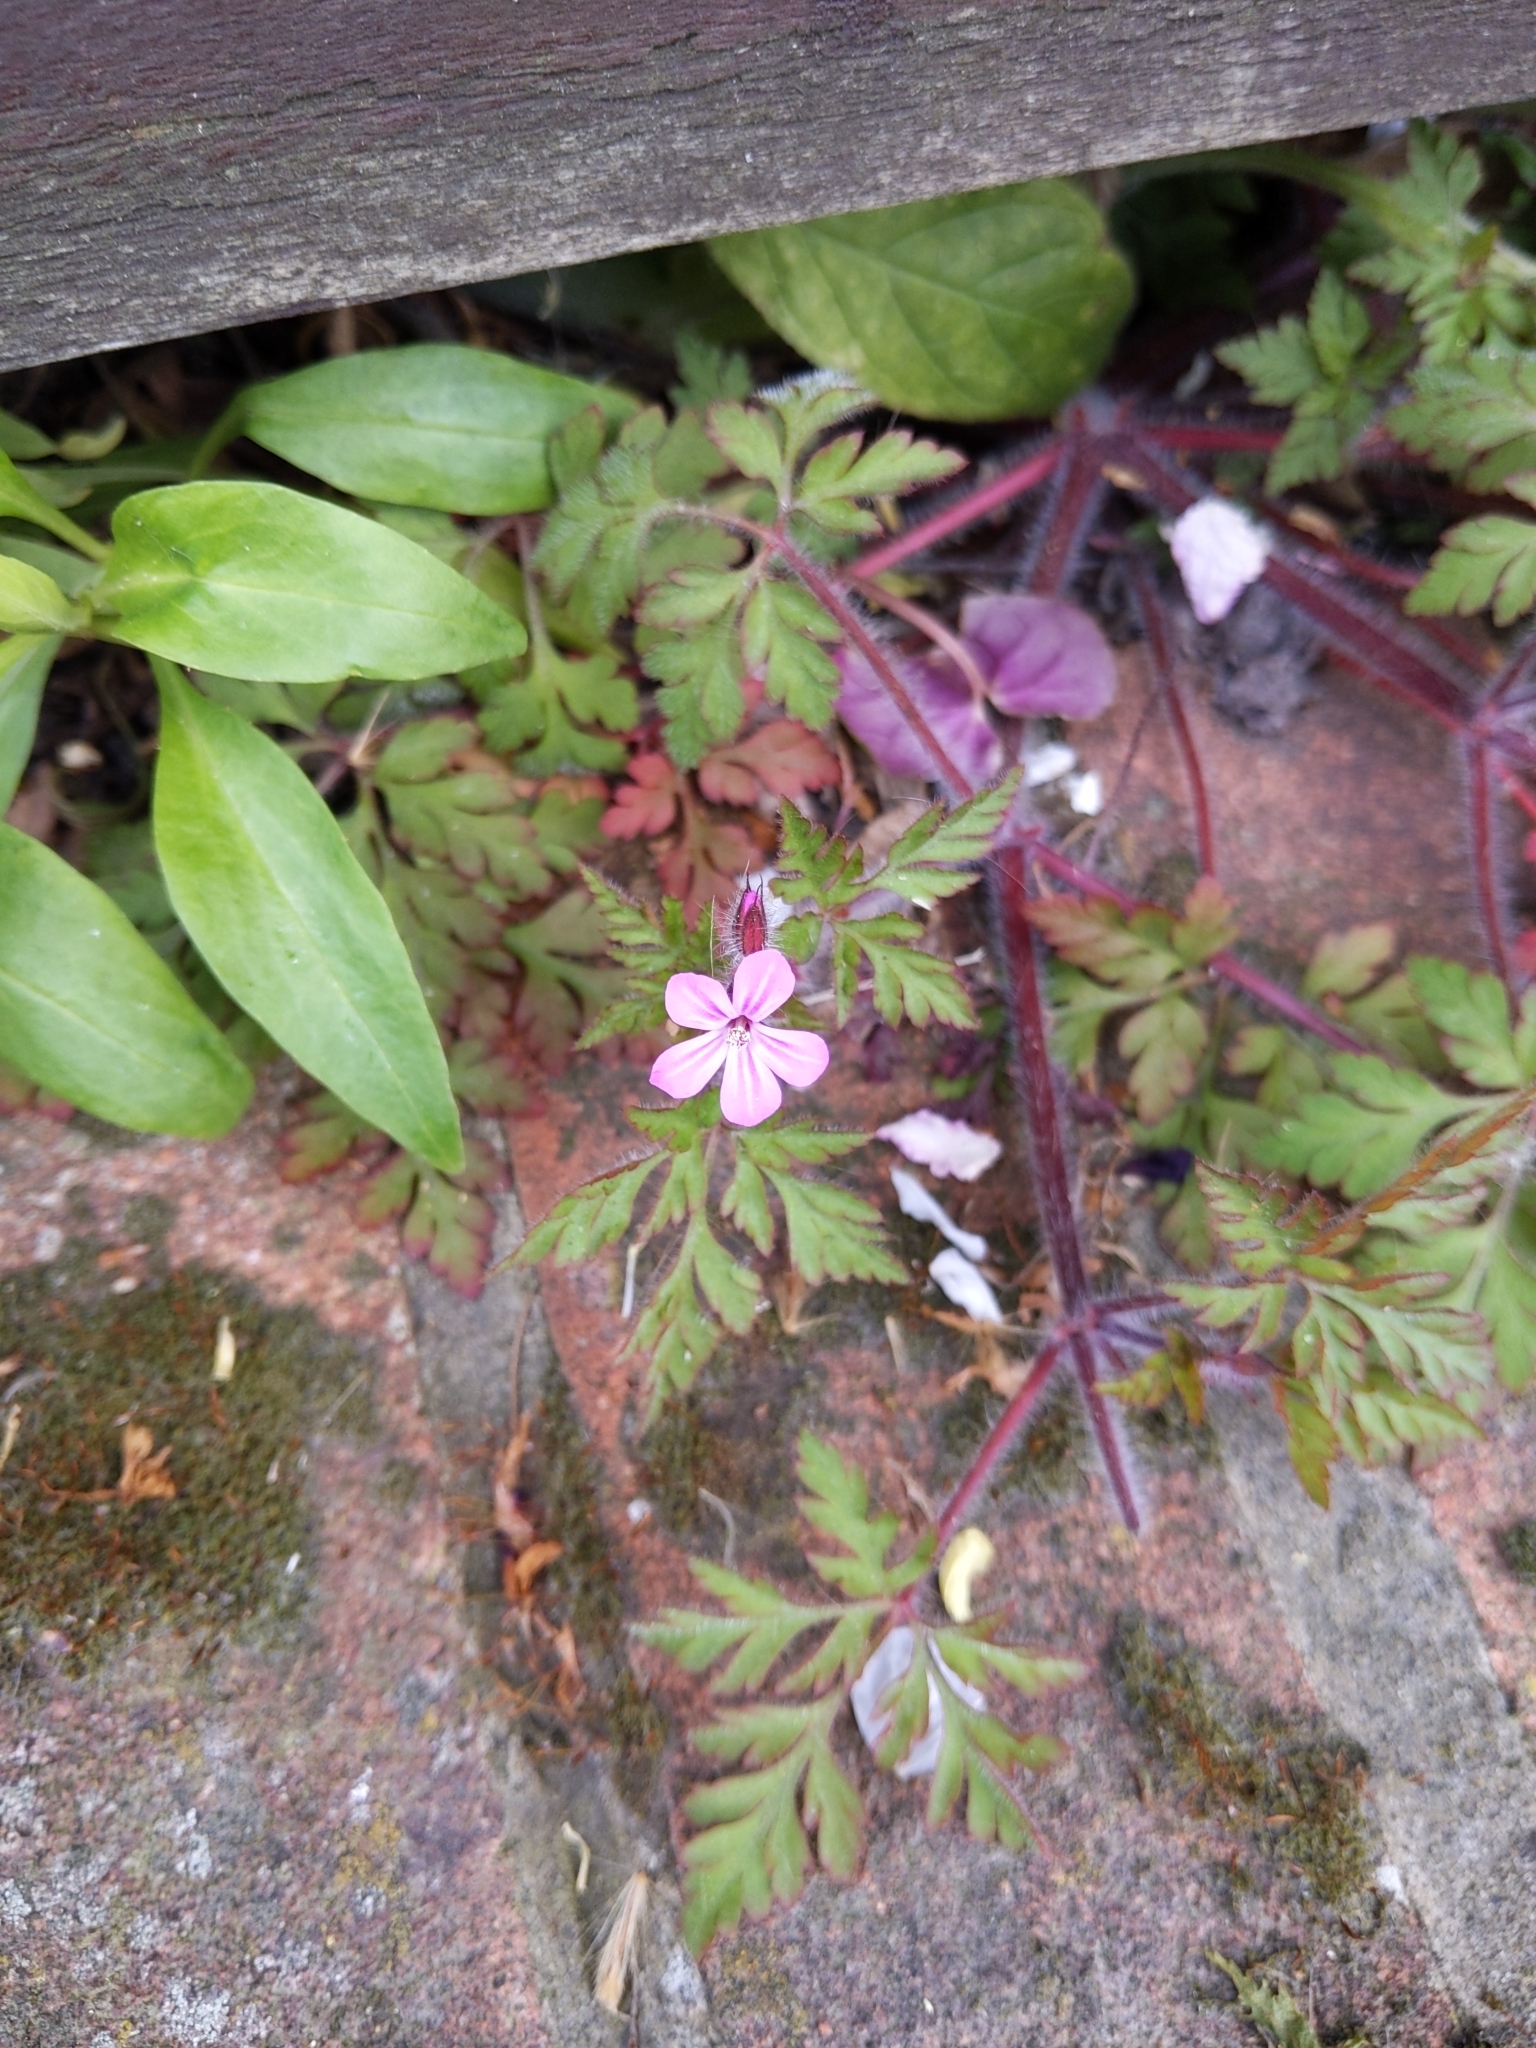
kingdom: Plantae
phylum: Tracheophyta
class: Magnoliopsida
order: Geraniales
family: Geraniaceae
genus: Geranium
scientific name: Geranium robertianum
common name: Herb-robert
